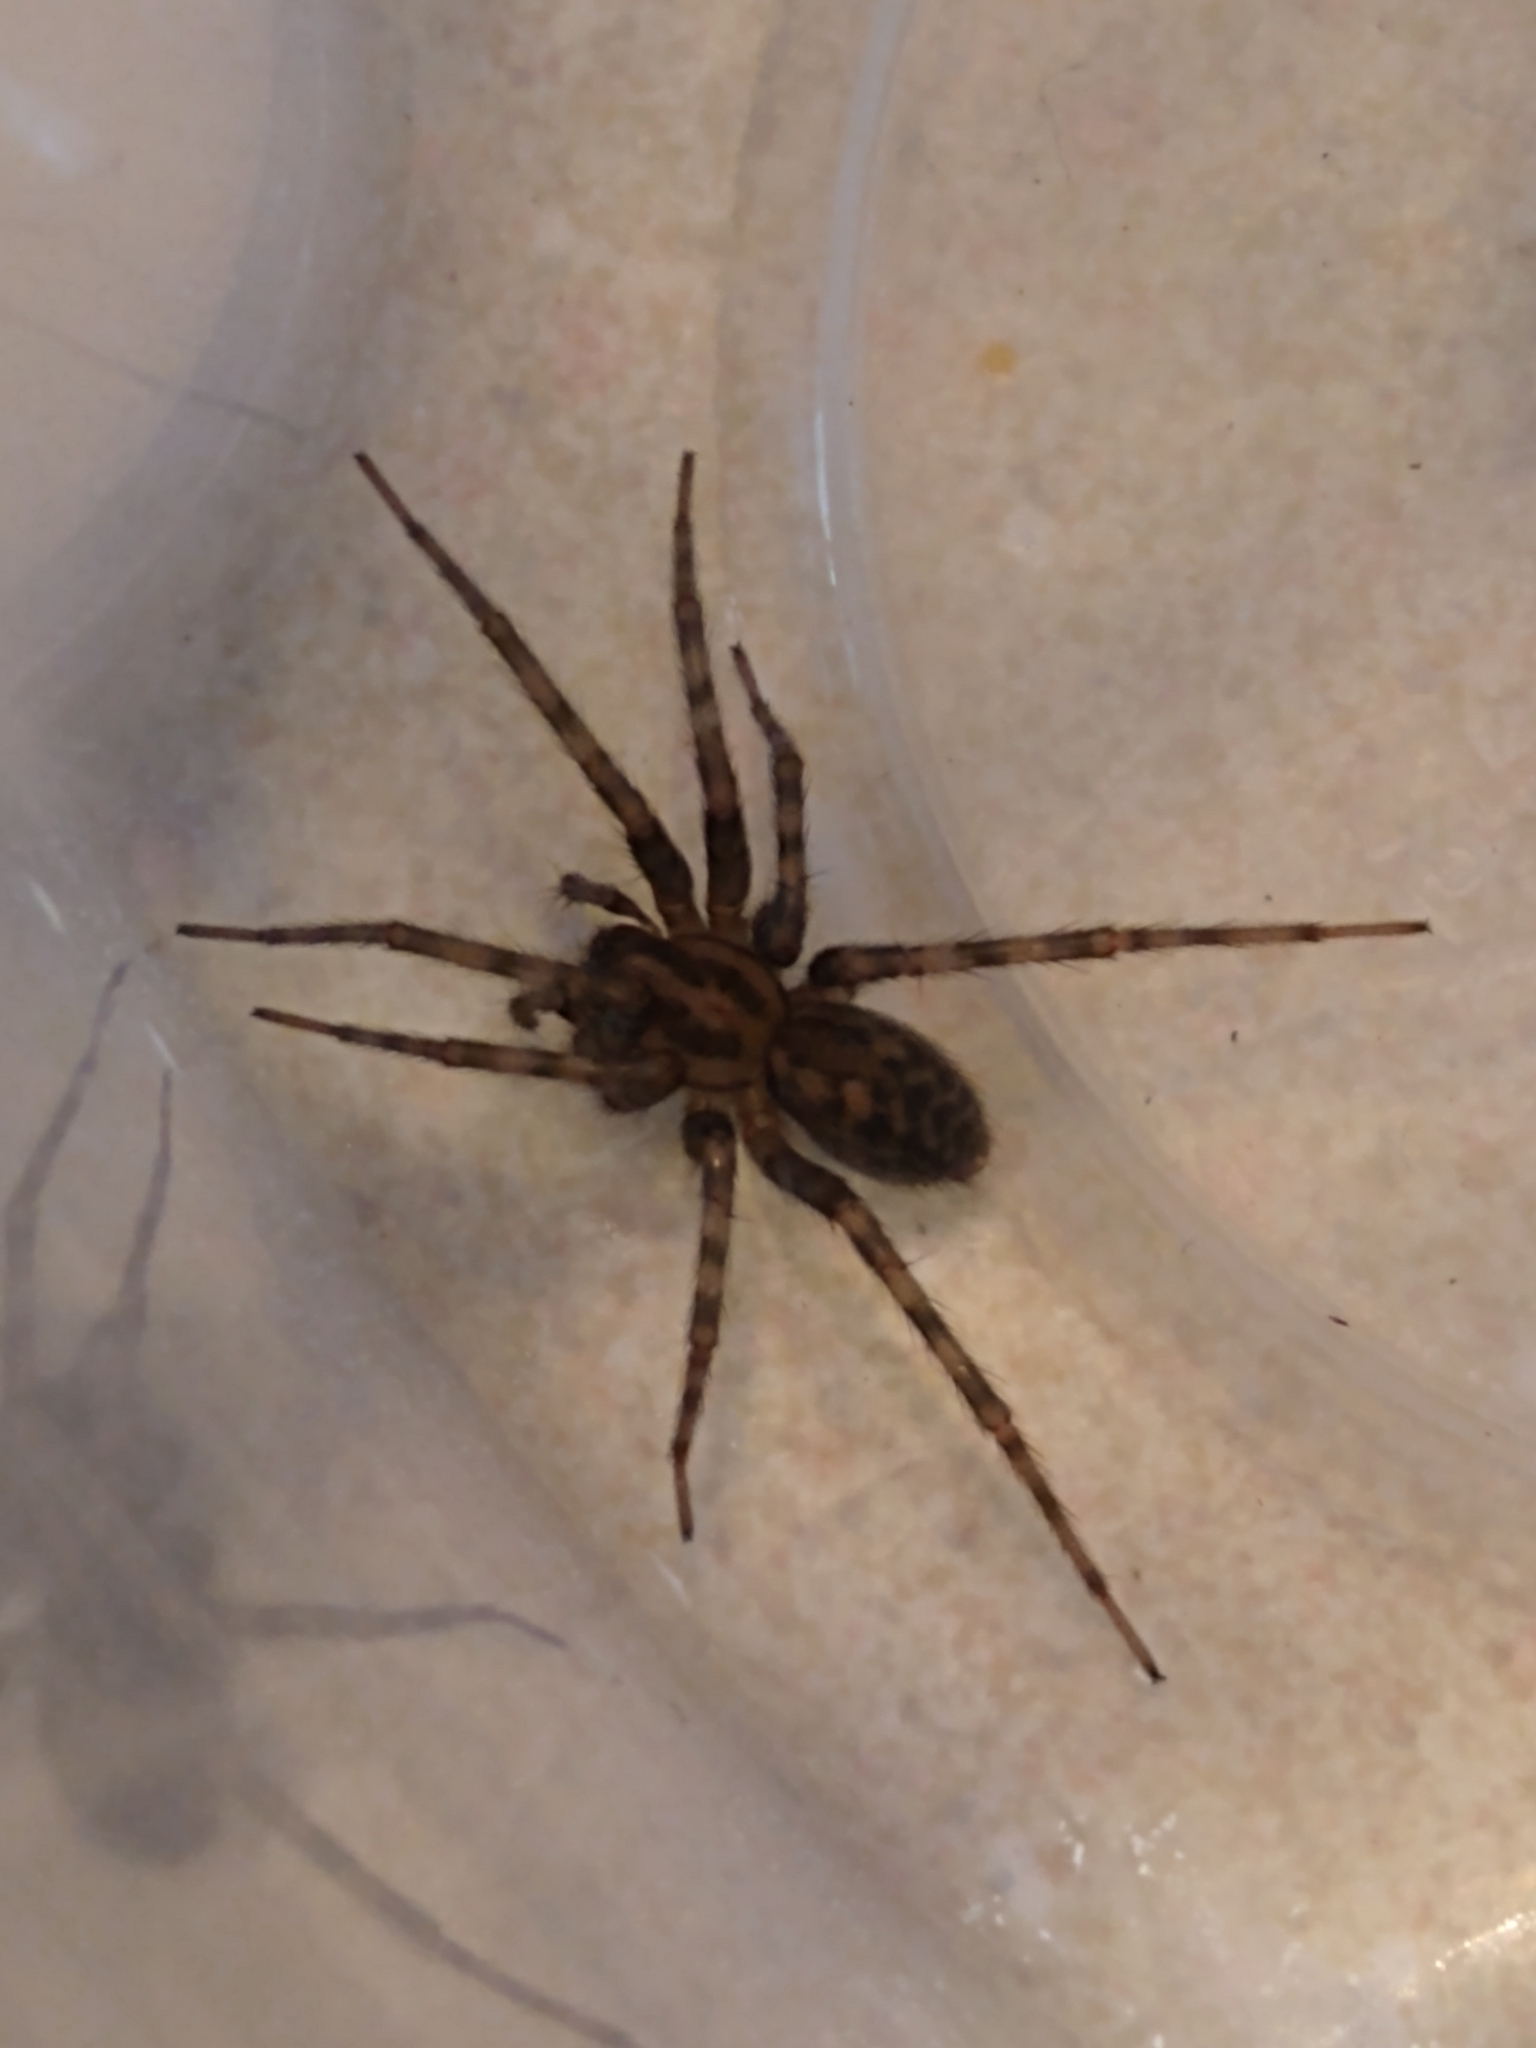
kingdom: Animalia
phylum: Arthropoda
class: Arachnida
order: Araneae
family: Agelenidae
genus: Tegenaria
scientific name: Tegenaria domestica
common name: Barn funnel weaver
